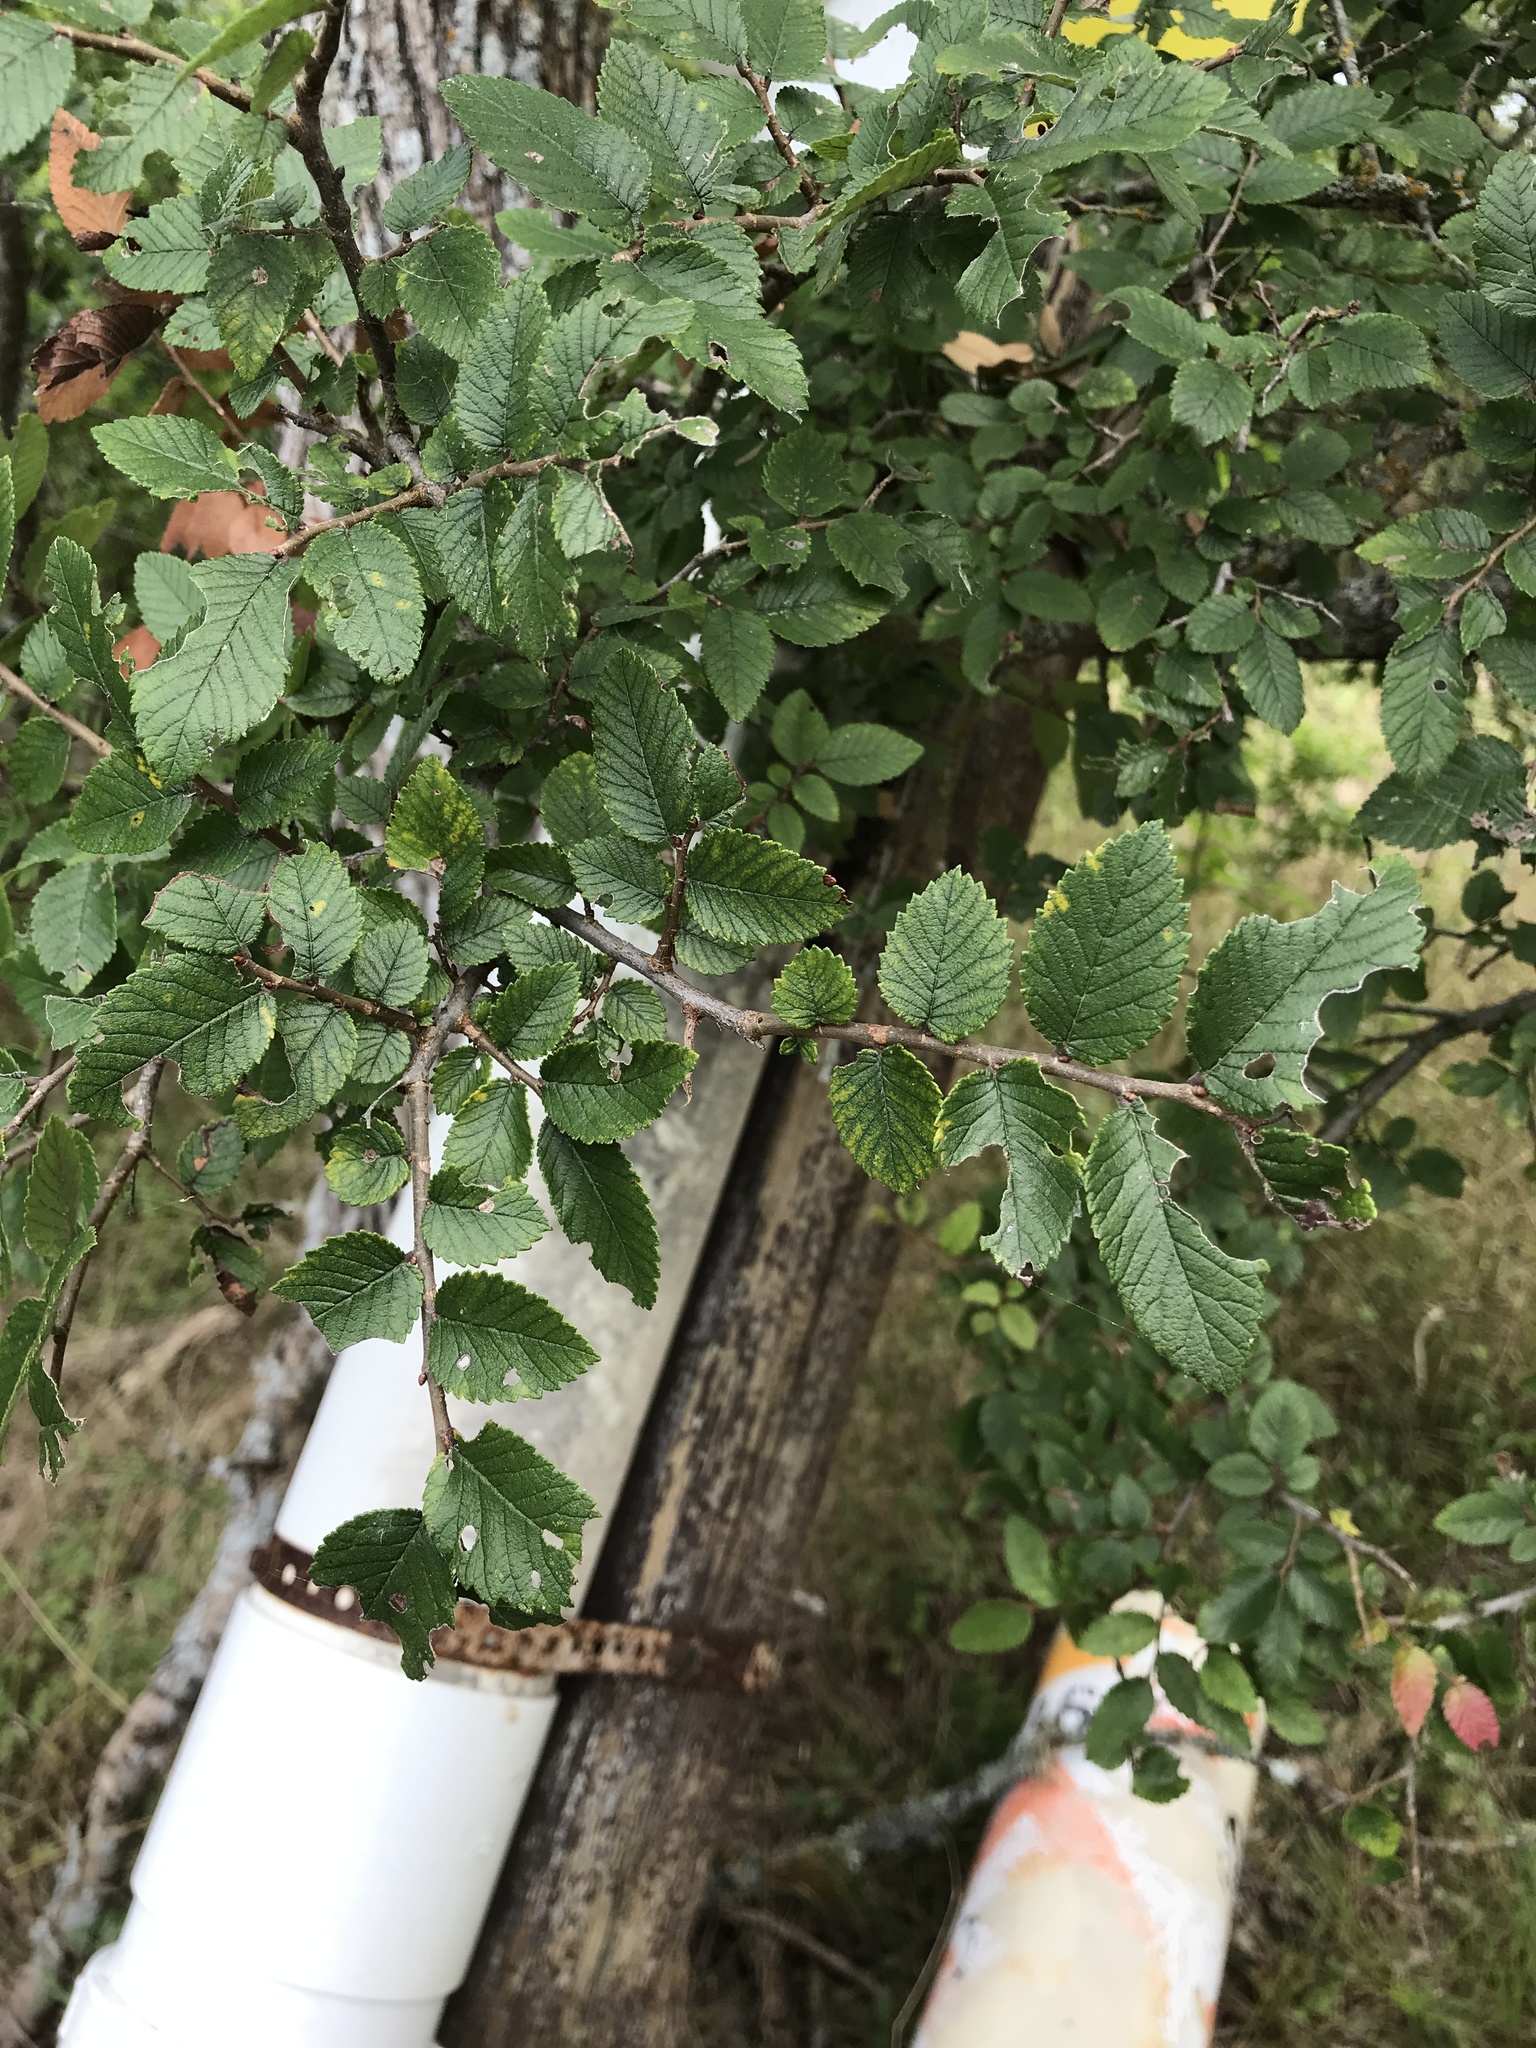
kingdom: Plantae
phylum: Tracheophyta
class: Magnoliopsida
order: Rosales
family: Ulmaceae
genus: Ulmus
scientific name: Ulmus crassifolia
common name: Basket elm
